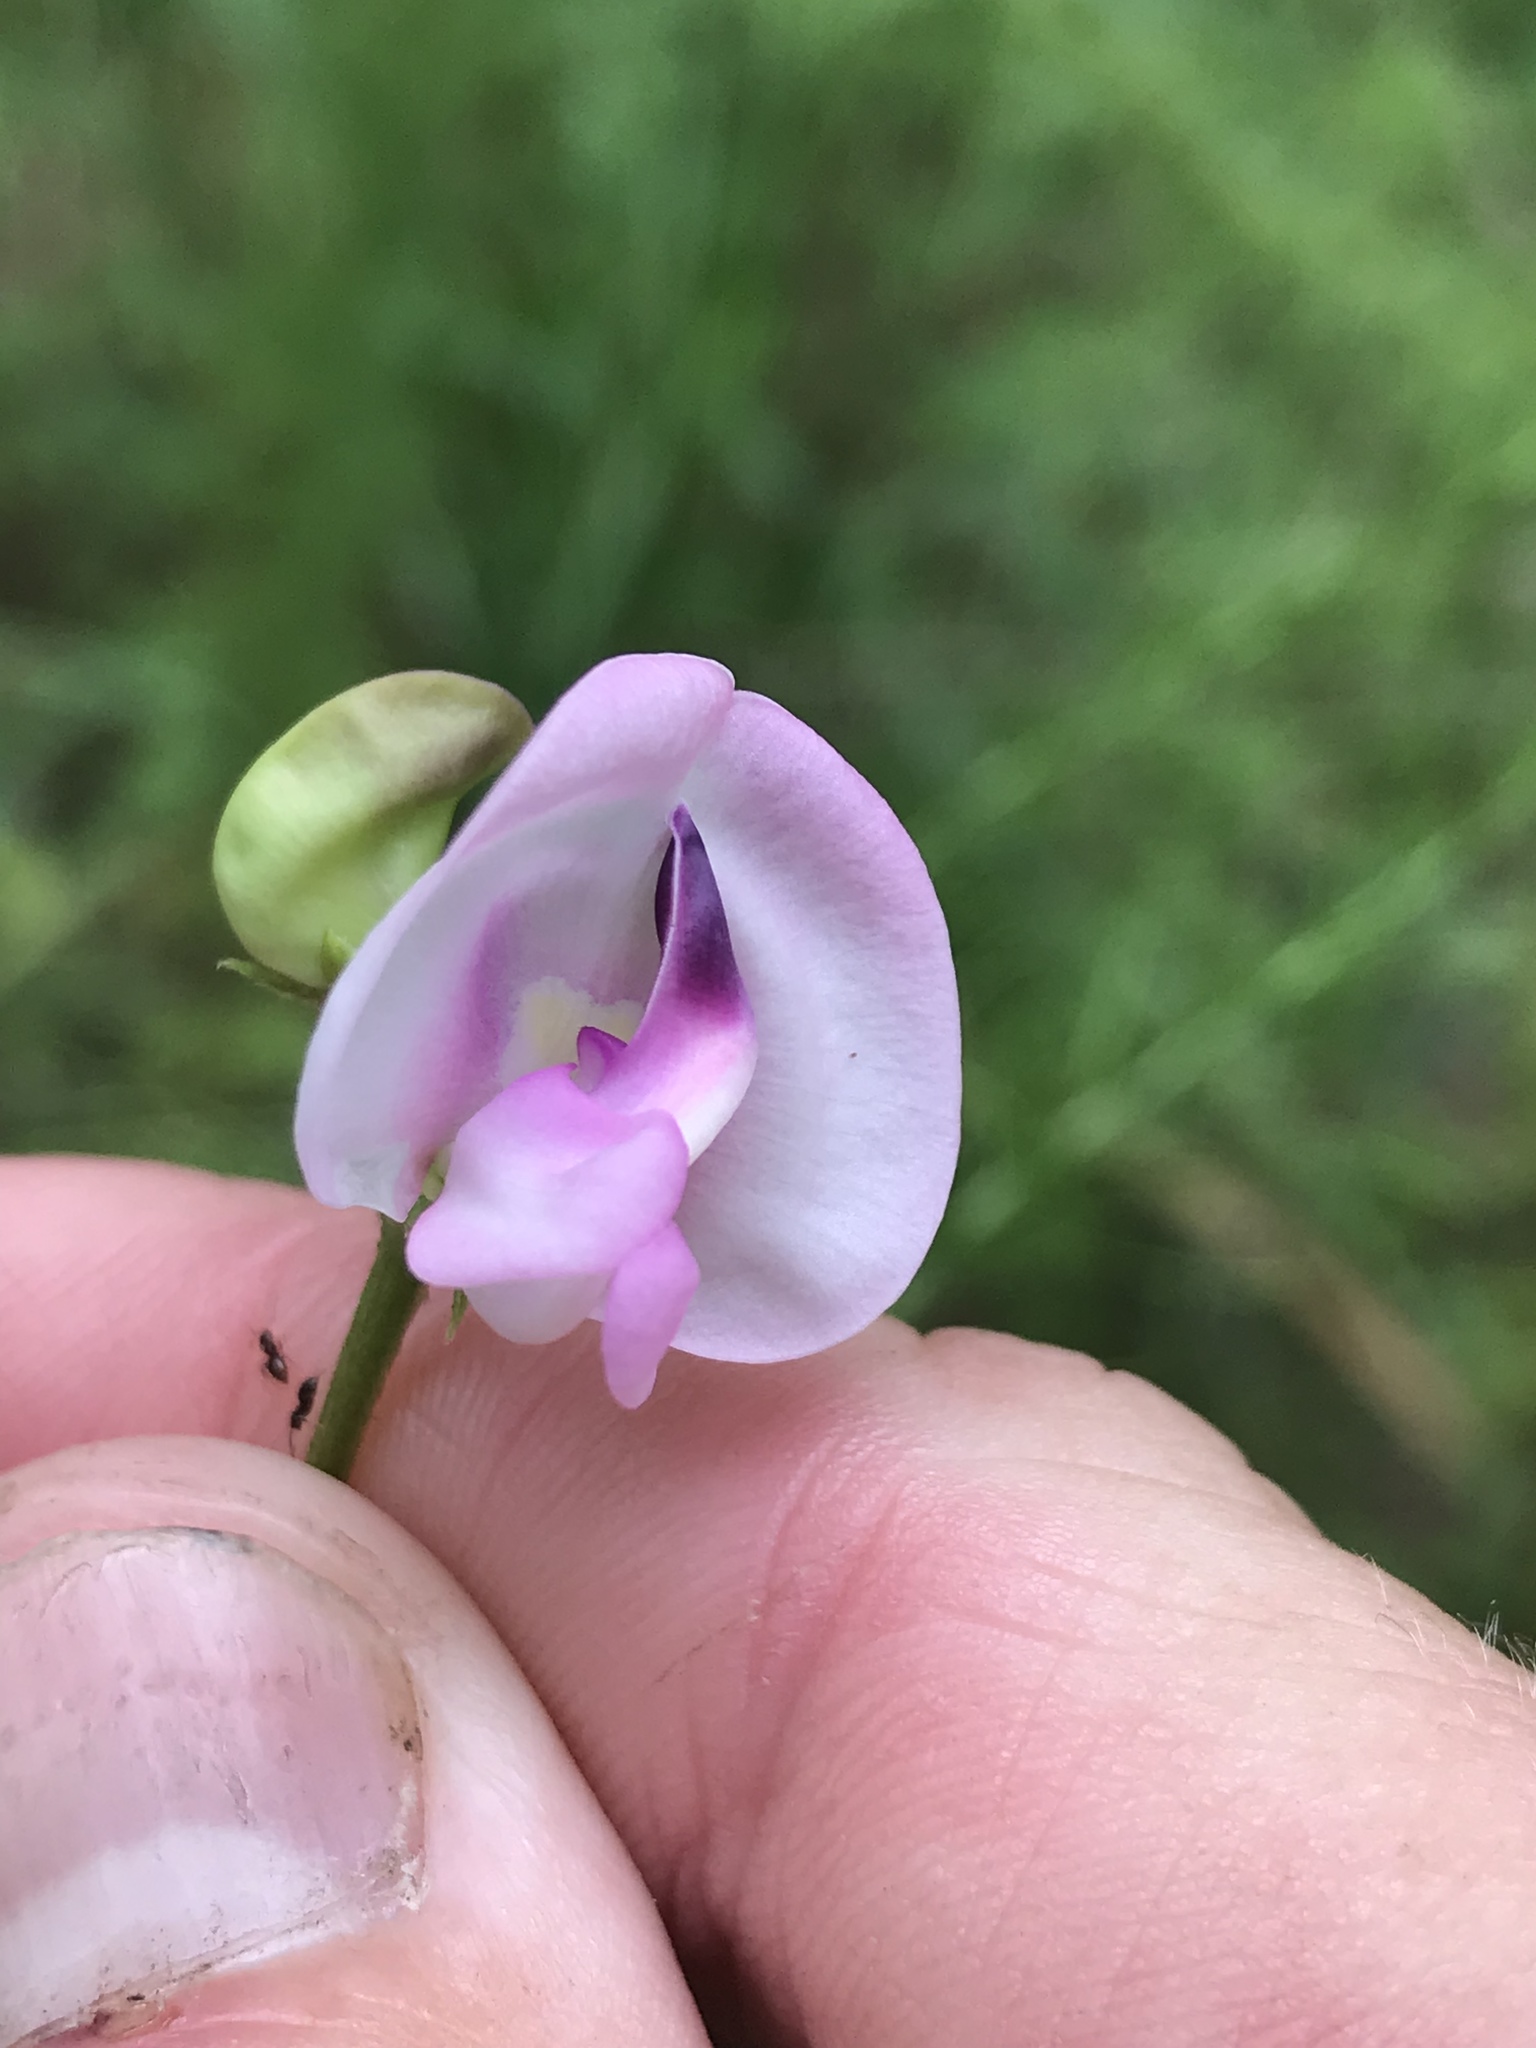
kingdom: Plantae
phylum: Tracheophyta
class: Magnoliopsida
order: Fabales
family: Fabaceae
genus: Strophostyles
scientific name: Strophostyles umbellata
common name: Perennial wild bean
